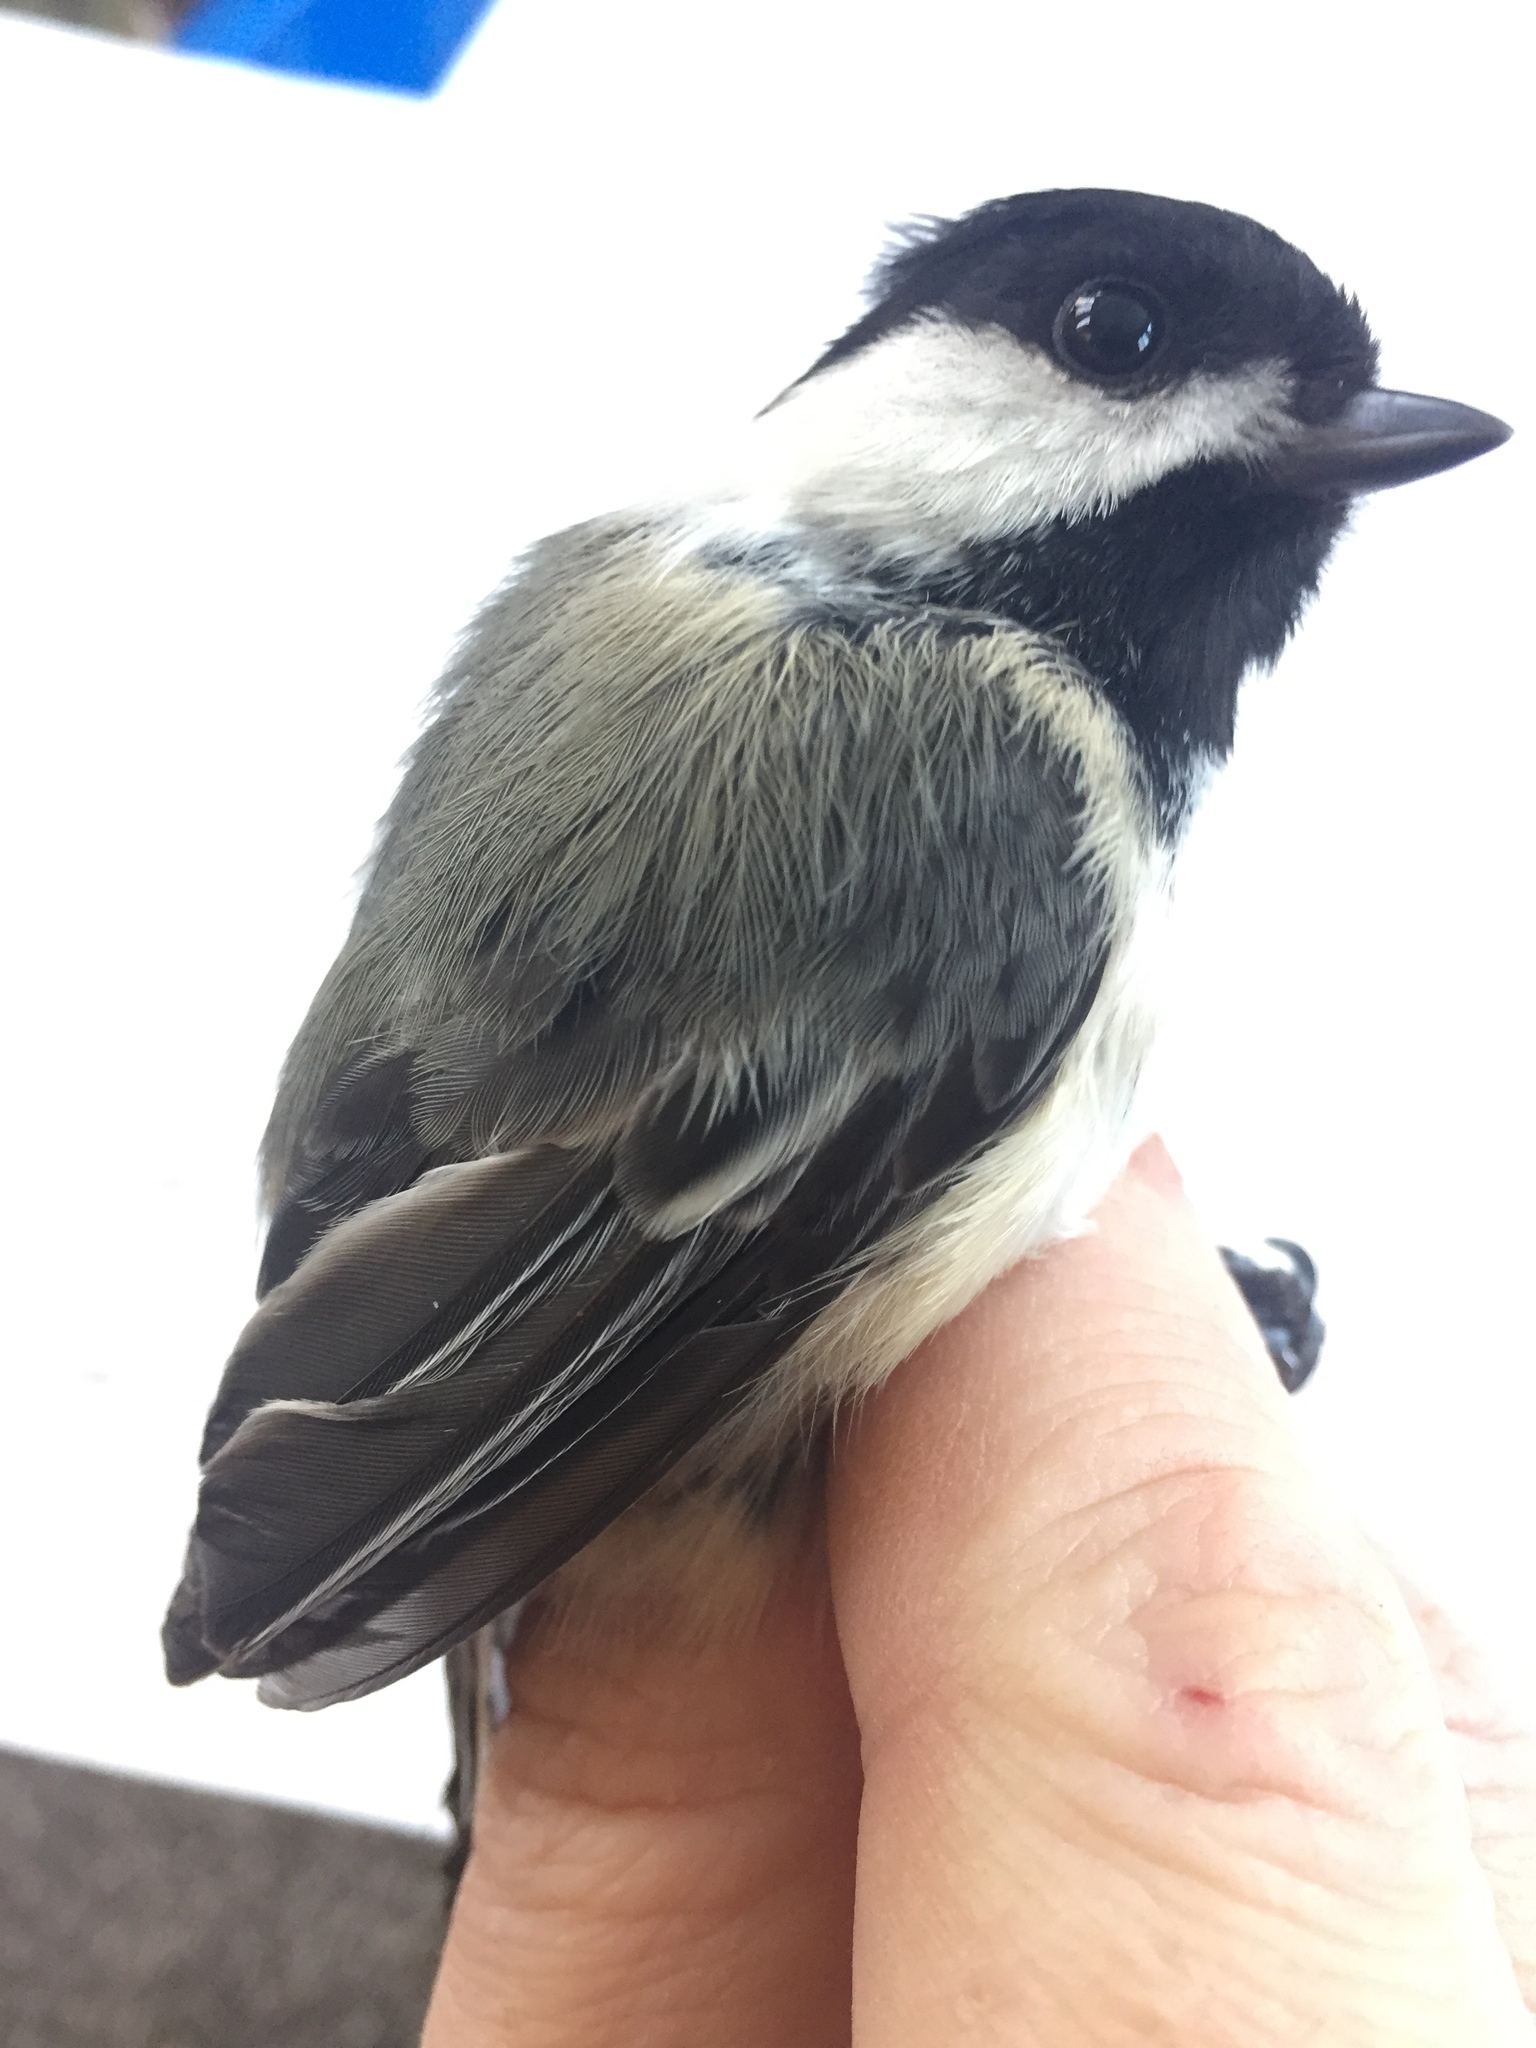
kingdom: Animalia
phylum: Chordata
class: Aves
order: Passeriformes
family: Paridae
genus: Poecile
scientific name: Poecile atricapillus
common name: Black-capped chickadee
